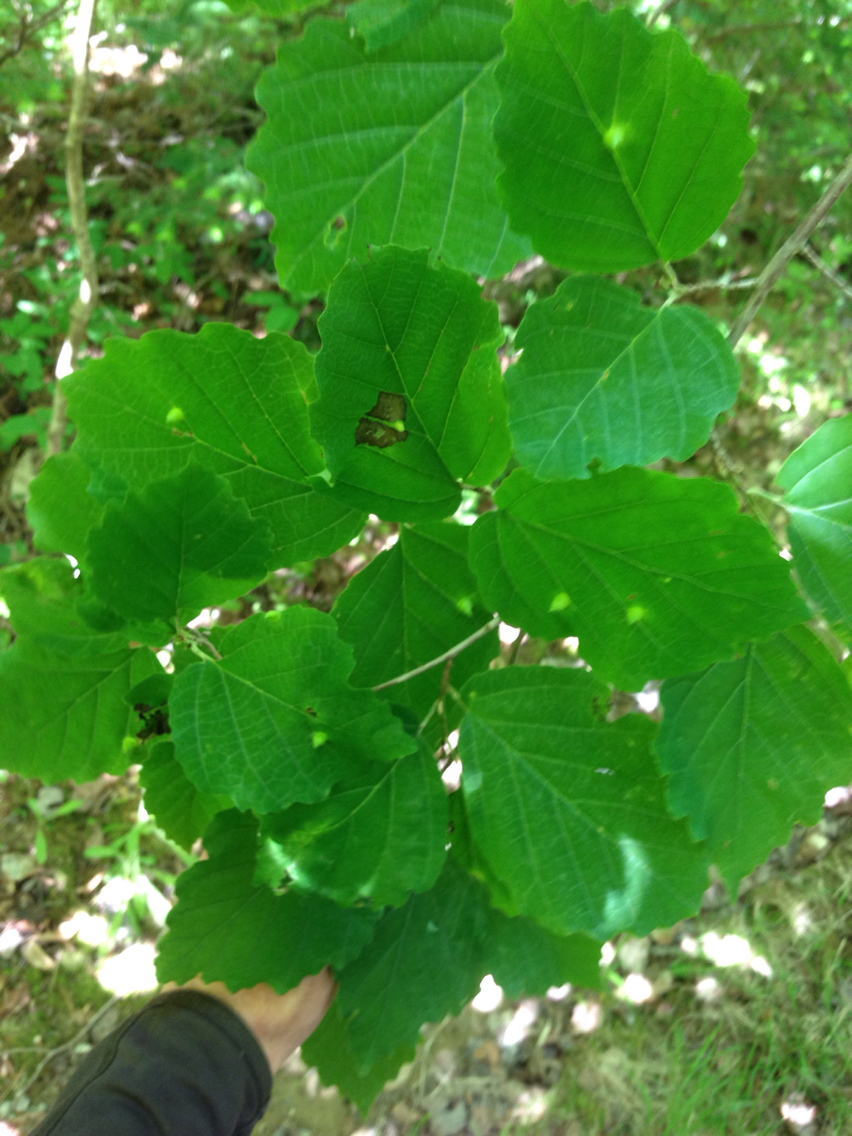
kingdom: Plantae
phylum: Tracheophyta
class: Magnoliopsida
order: Saxifragales
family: Hamamelidaceae
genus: Hamamelis
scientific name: Hamamelis virginiana
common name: Witch-hazel
